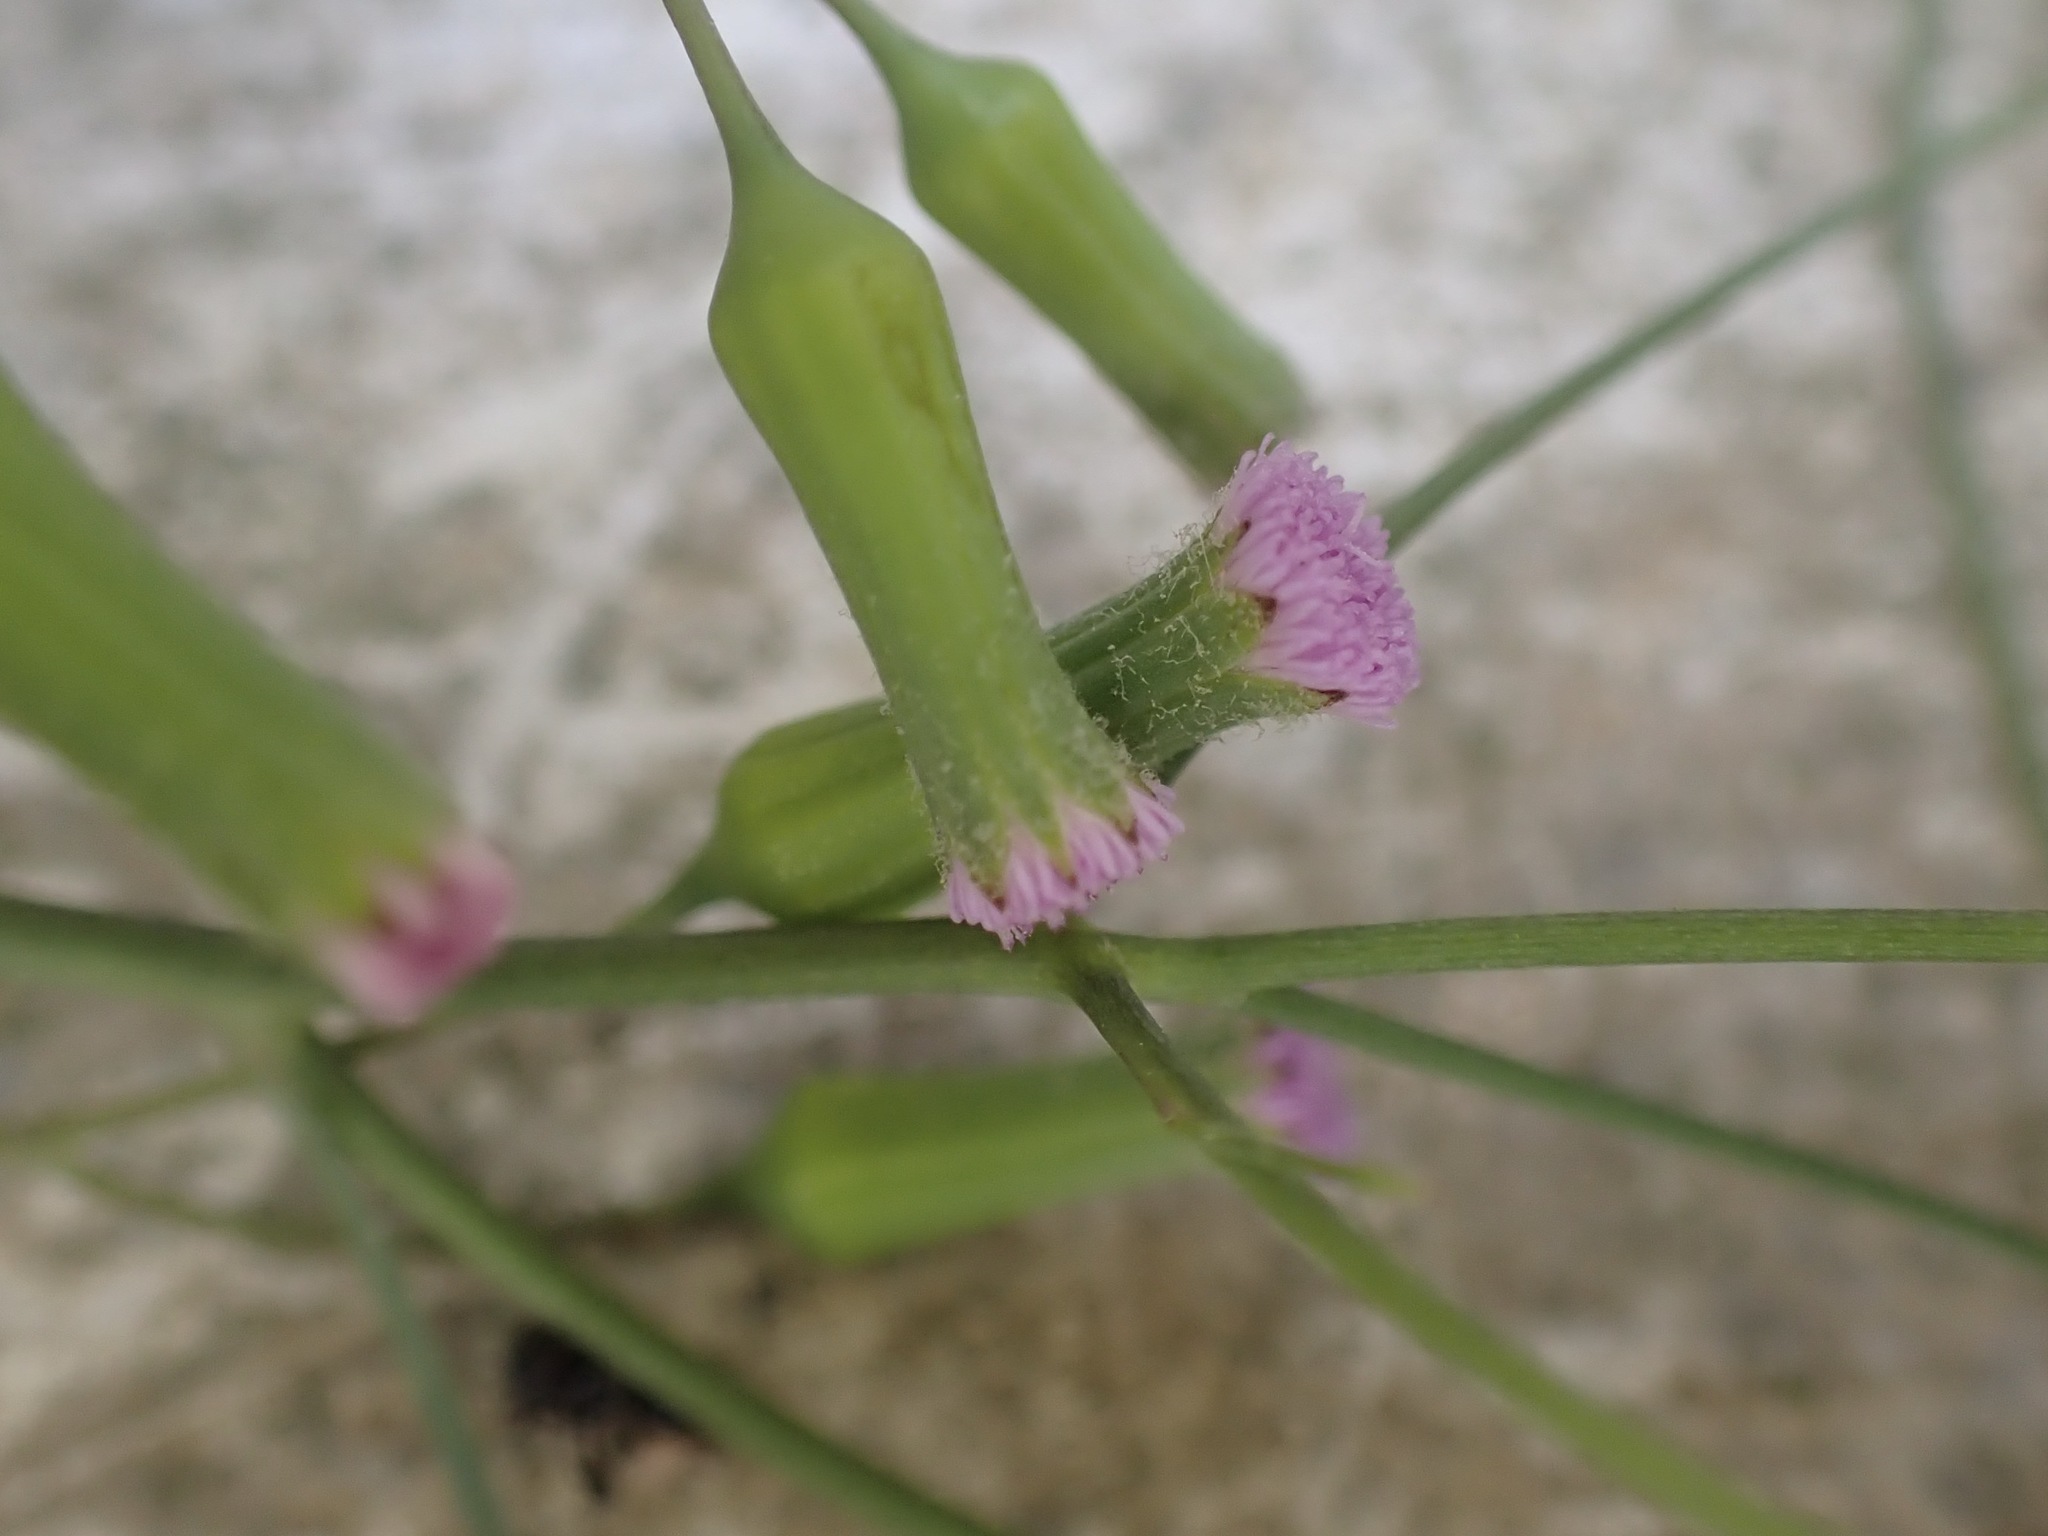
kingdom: Plantae
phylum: Tracheophyta
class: Magnoliopsida
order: Asterales
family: Asteraceae
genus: Emilia
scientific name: Emilia sonchifolia
